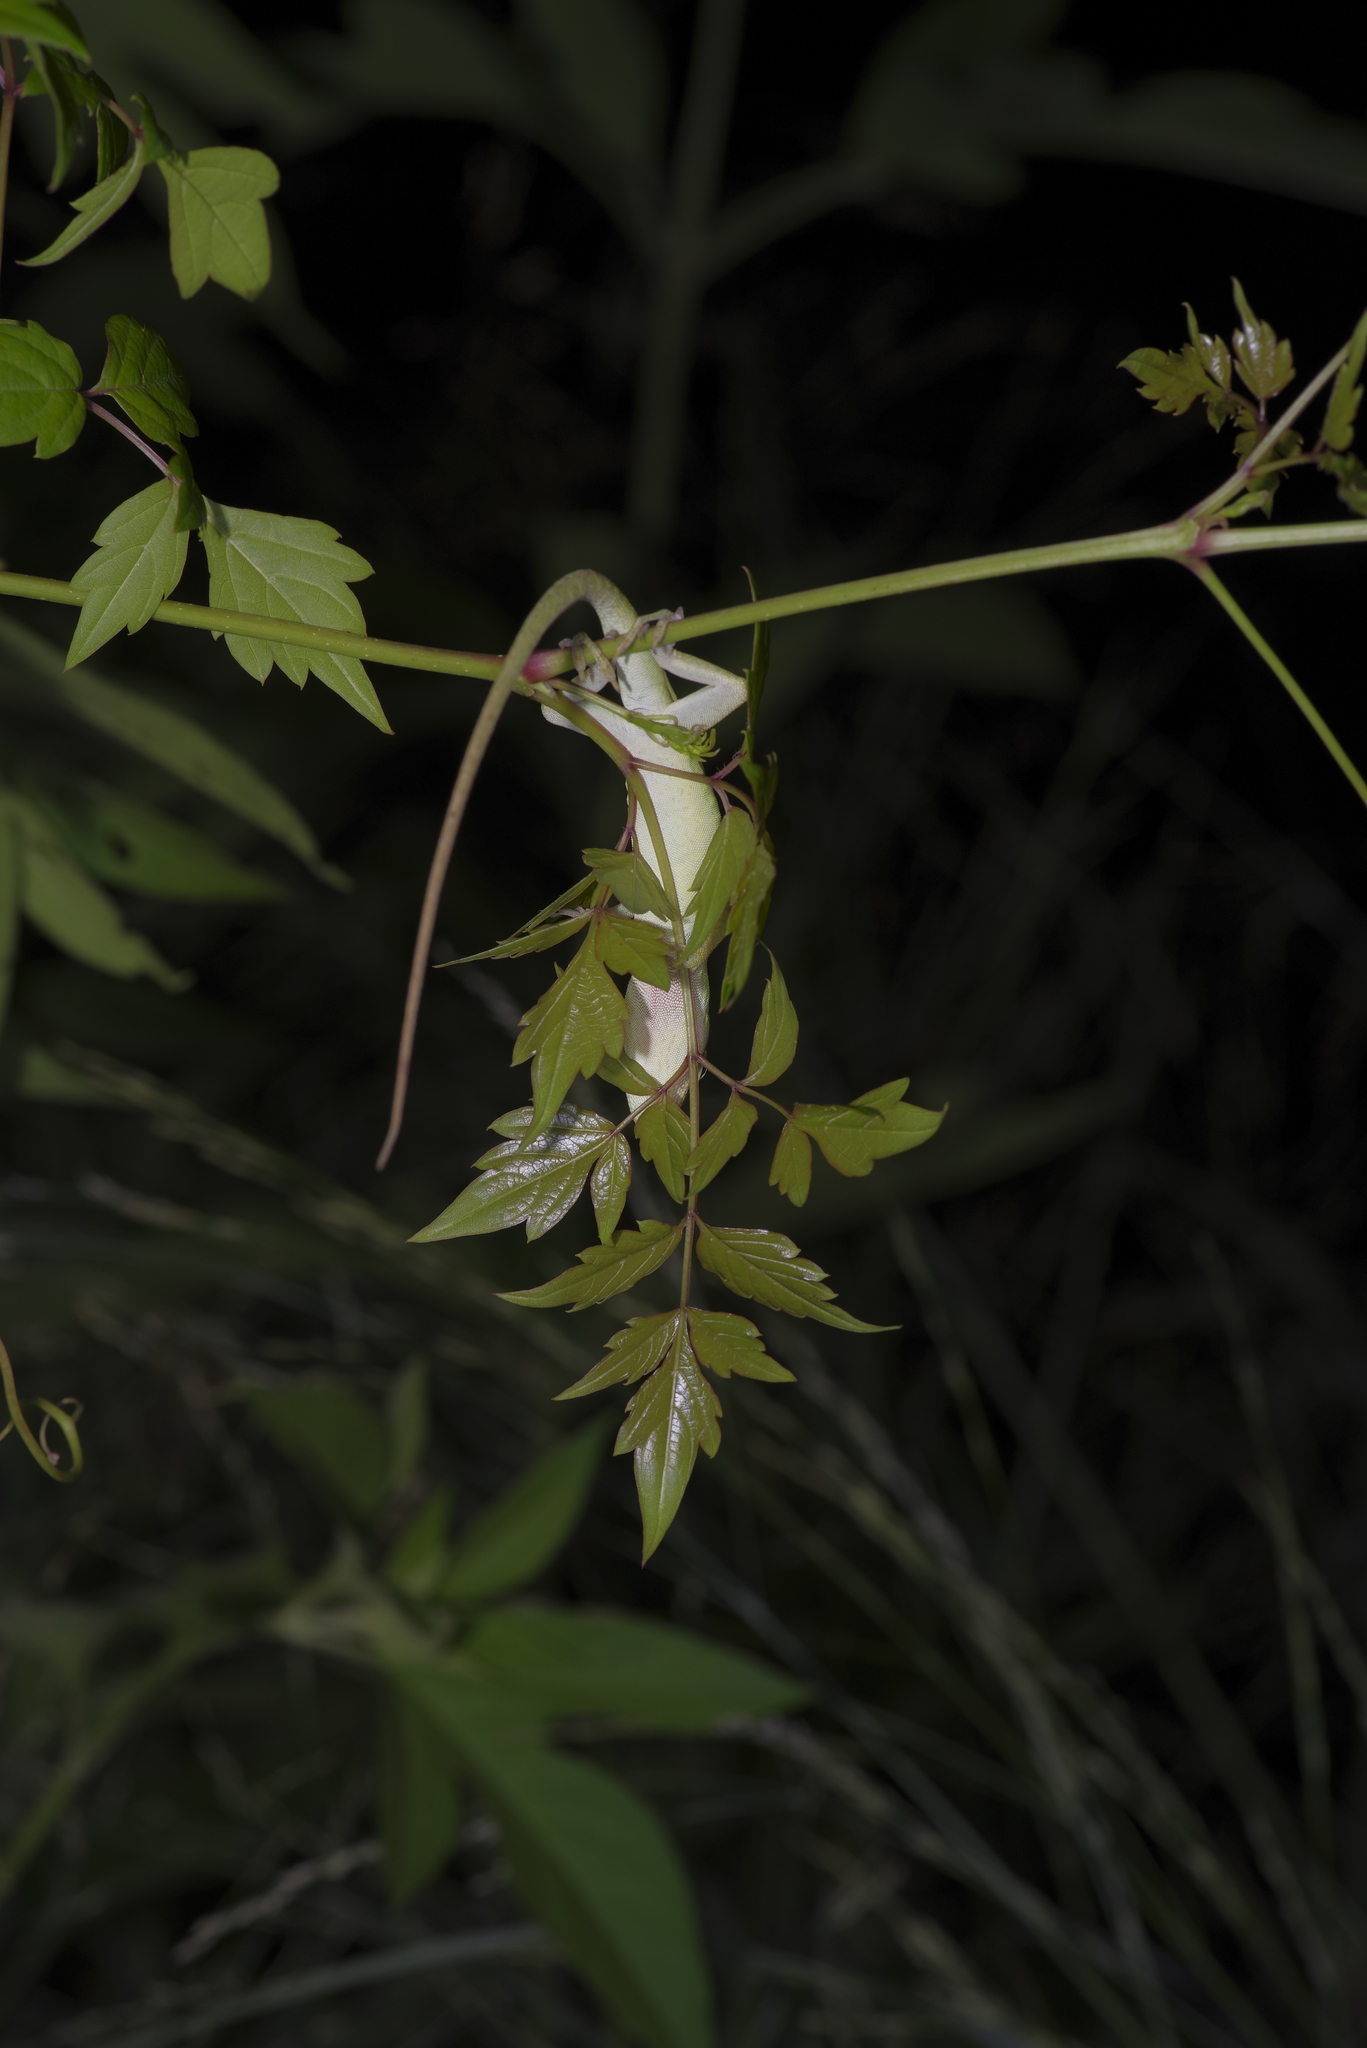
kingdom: Animalia
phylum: Chordata
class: Squamata
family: Dactyloidae
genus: Anolis
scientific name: Anolis carolinensis
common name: Green anole
